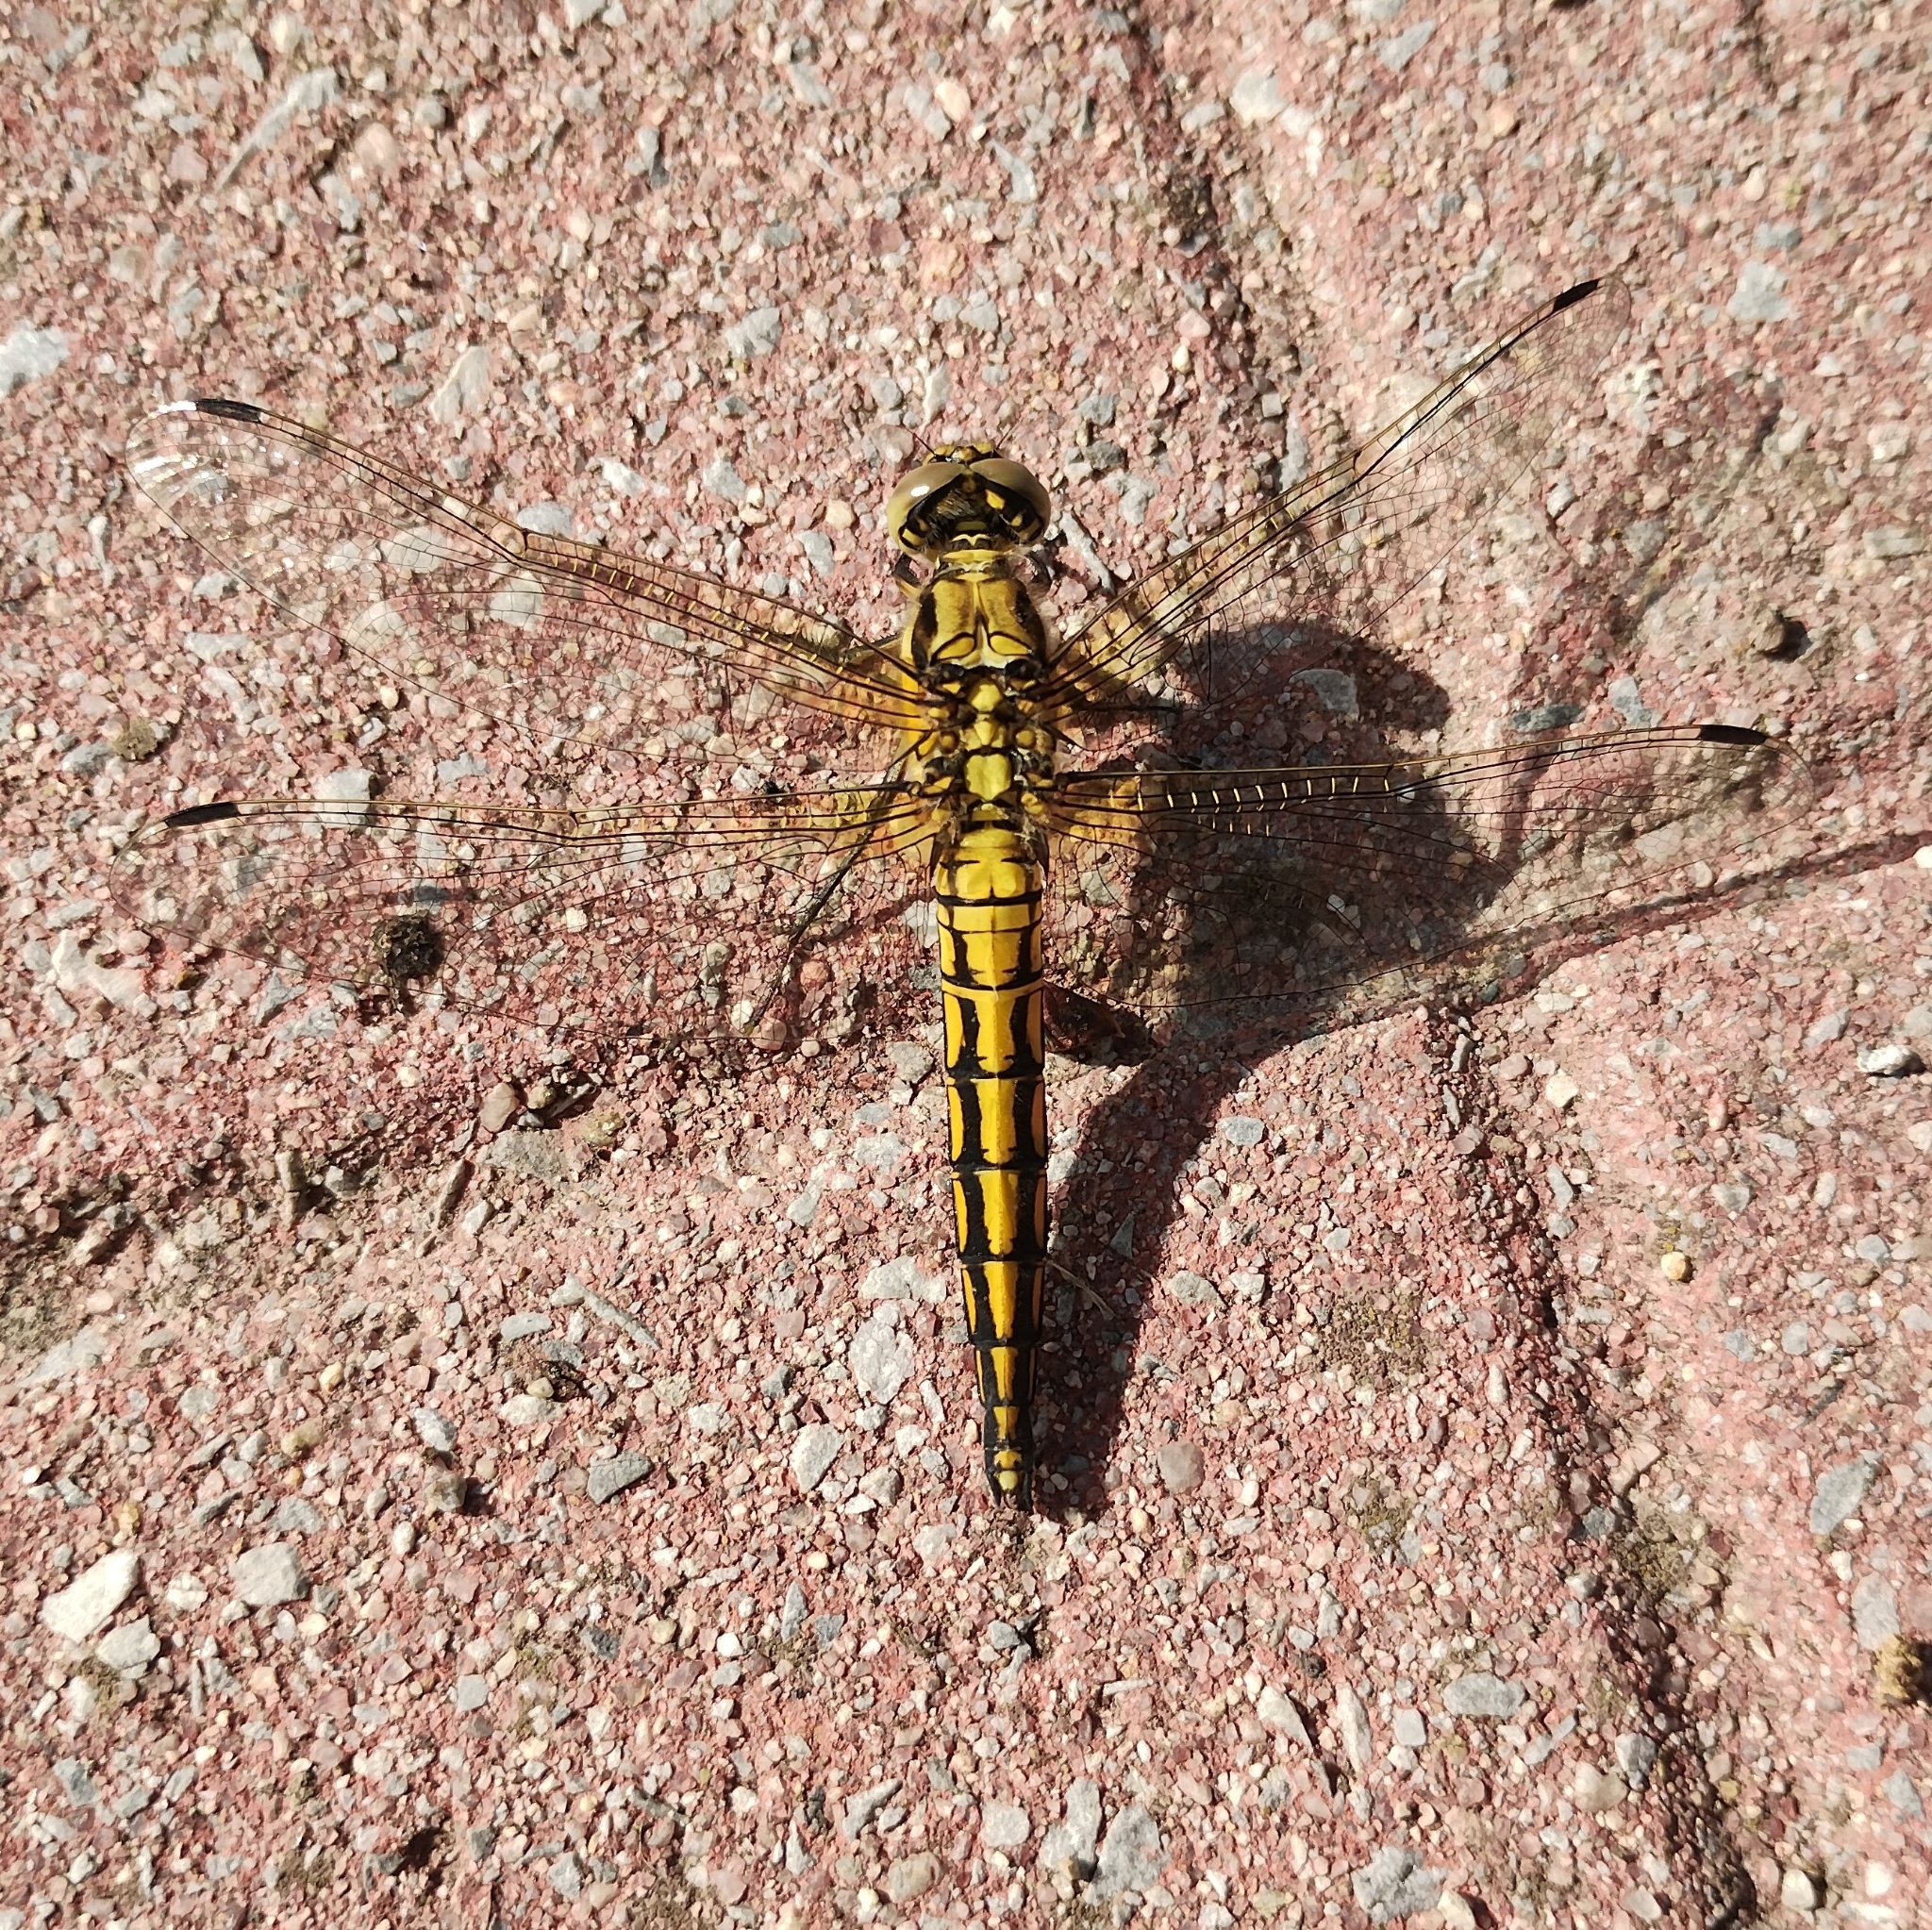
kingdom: Animalia
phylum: Arthropoda
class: Insecta
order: Odonata
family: Libellulidae
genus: Orthetrum
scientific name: Orthetrum cancellatum
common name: Black-tailed skimmer
